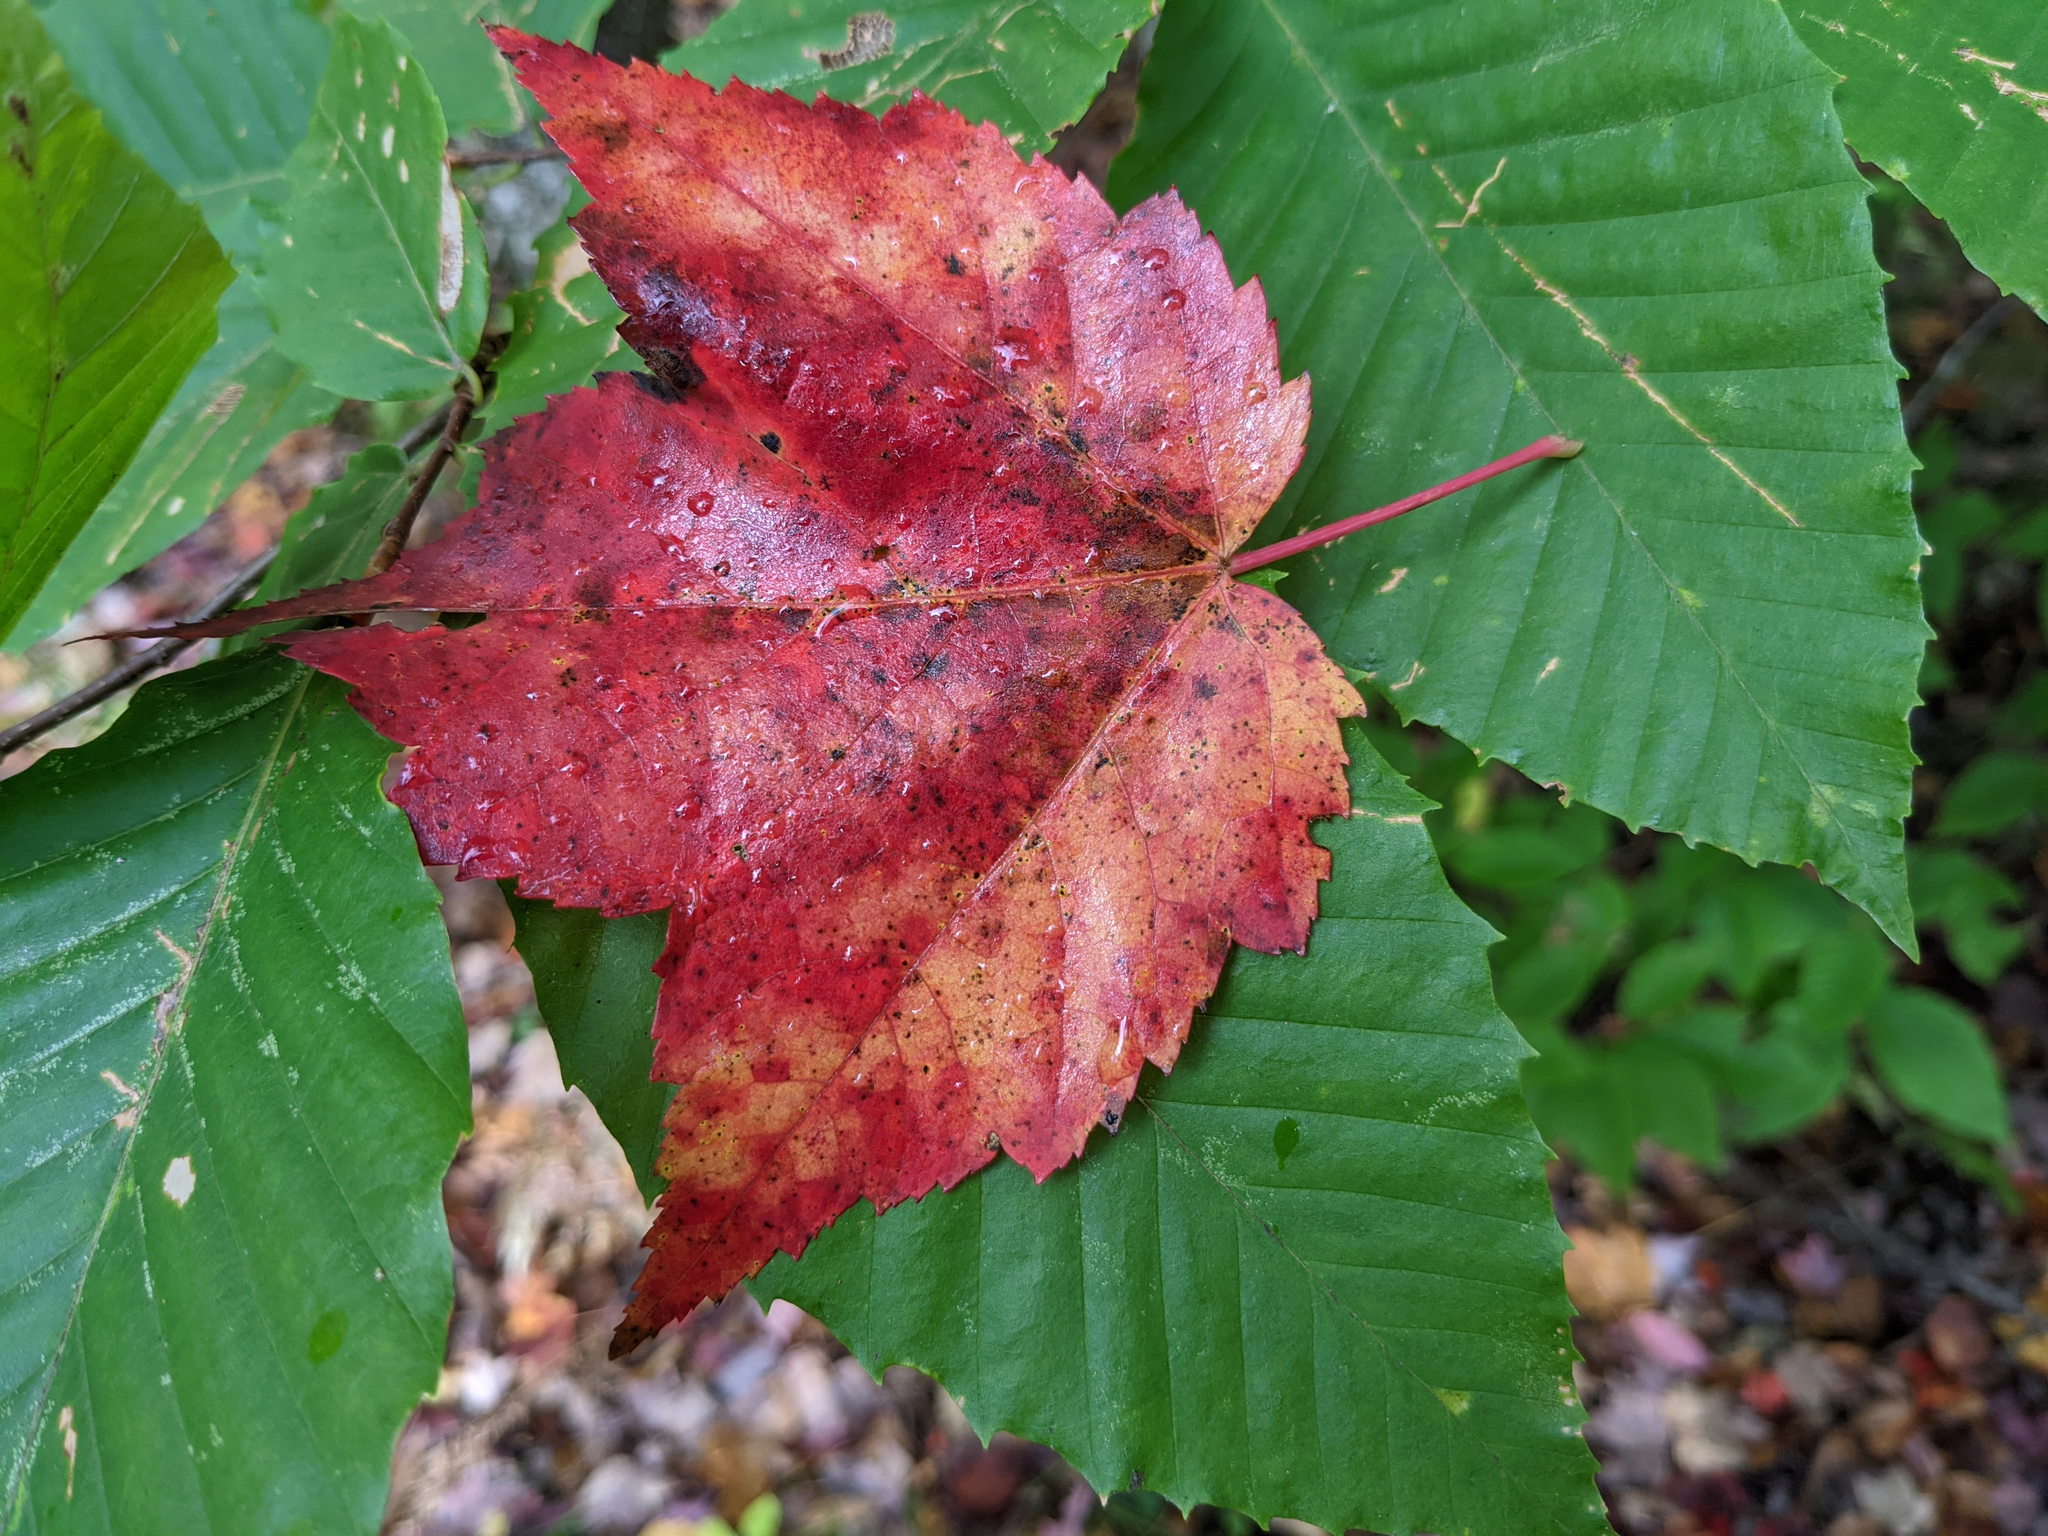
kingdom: Plantae
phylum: Tracheophyta
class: Magnoliopsida
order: Sapindales
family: Sapindaceae
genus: Acer
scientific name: Acer rubrum
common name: Red maple
